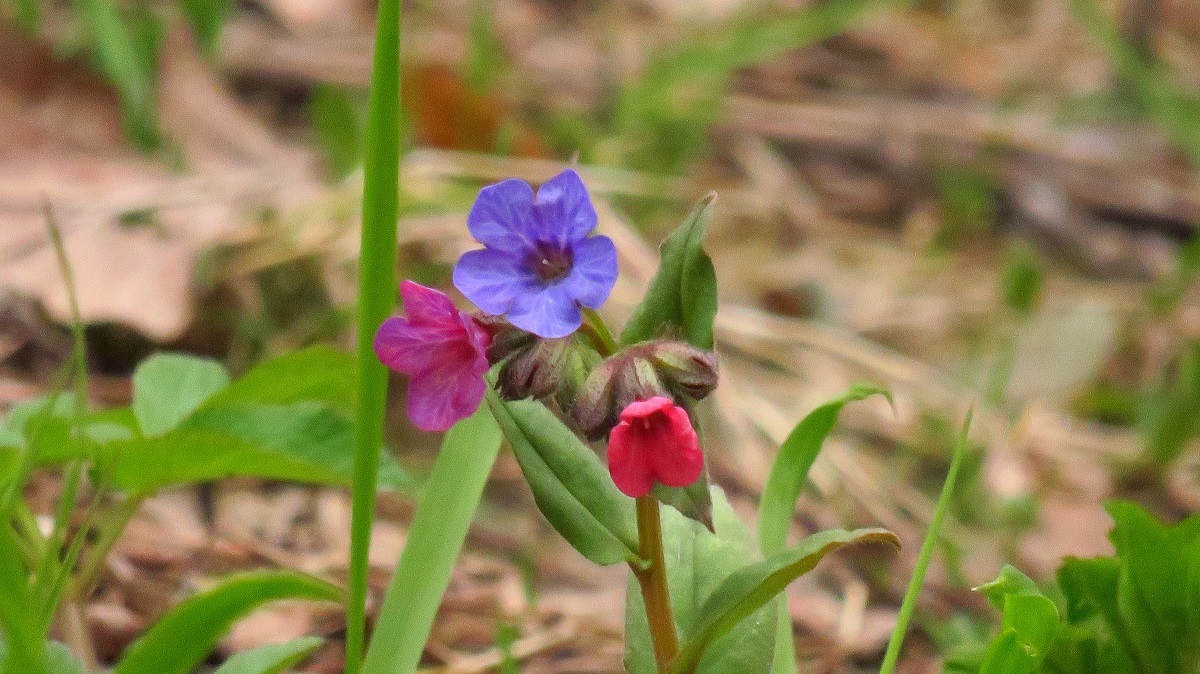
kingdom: Plantae
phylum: Tracheophyta
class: Magnoliopsida
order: Boraginales
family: Boraginaceae
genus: Pulmonaria
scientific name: Pulmonaria obscura
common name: Suffolk lungwort
